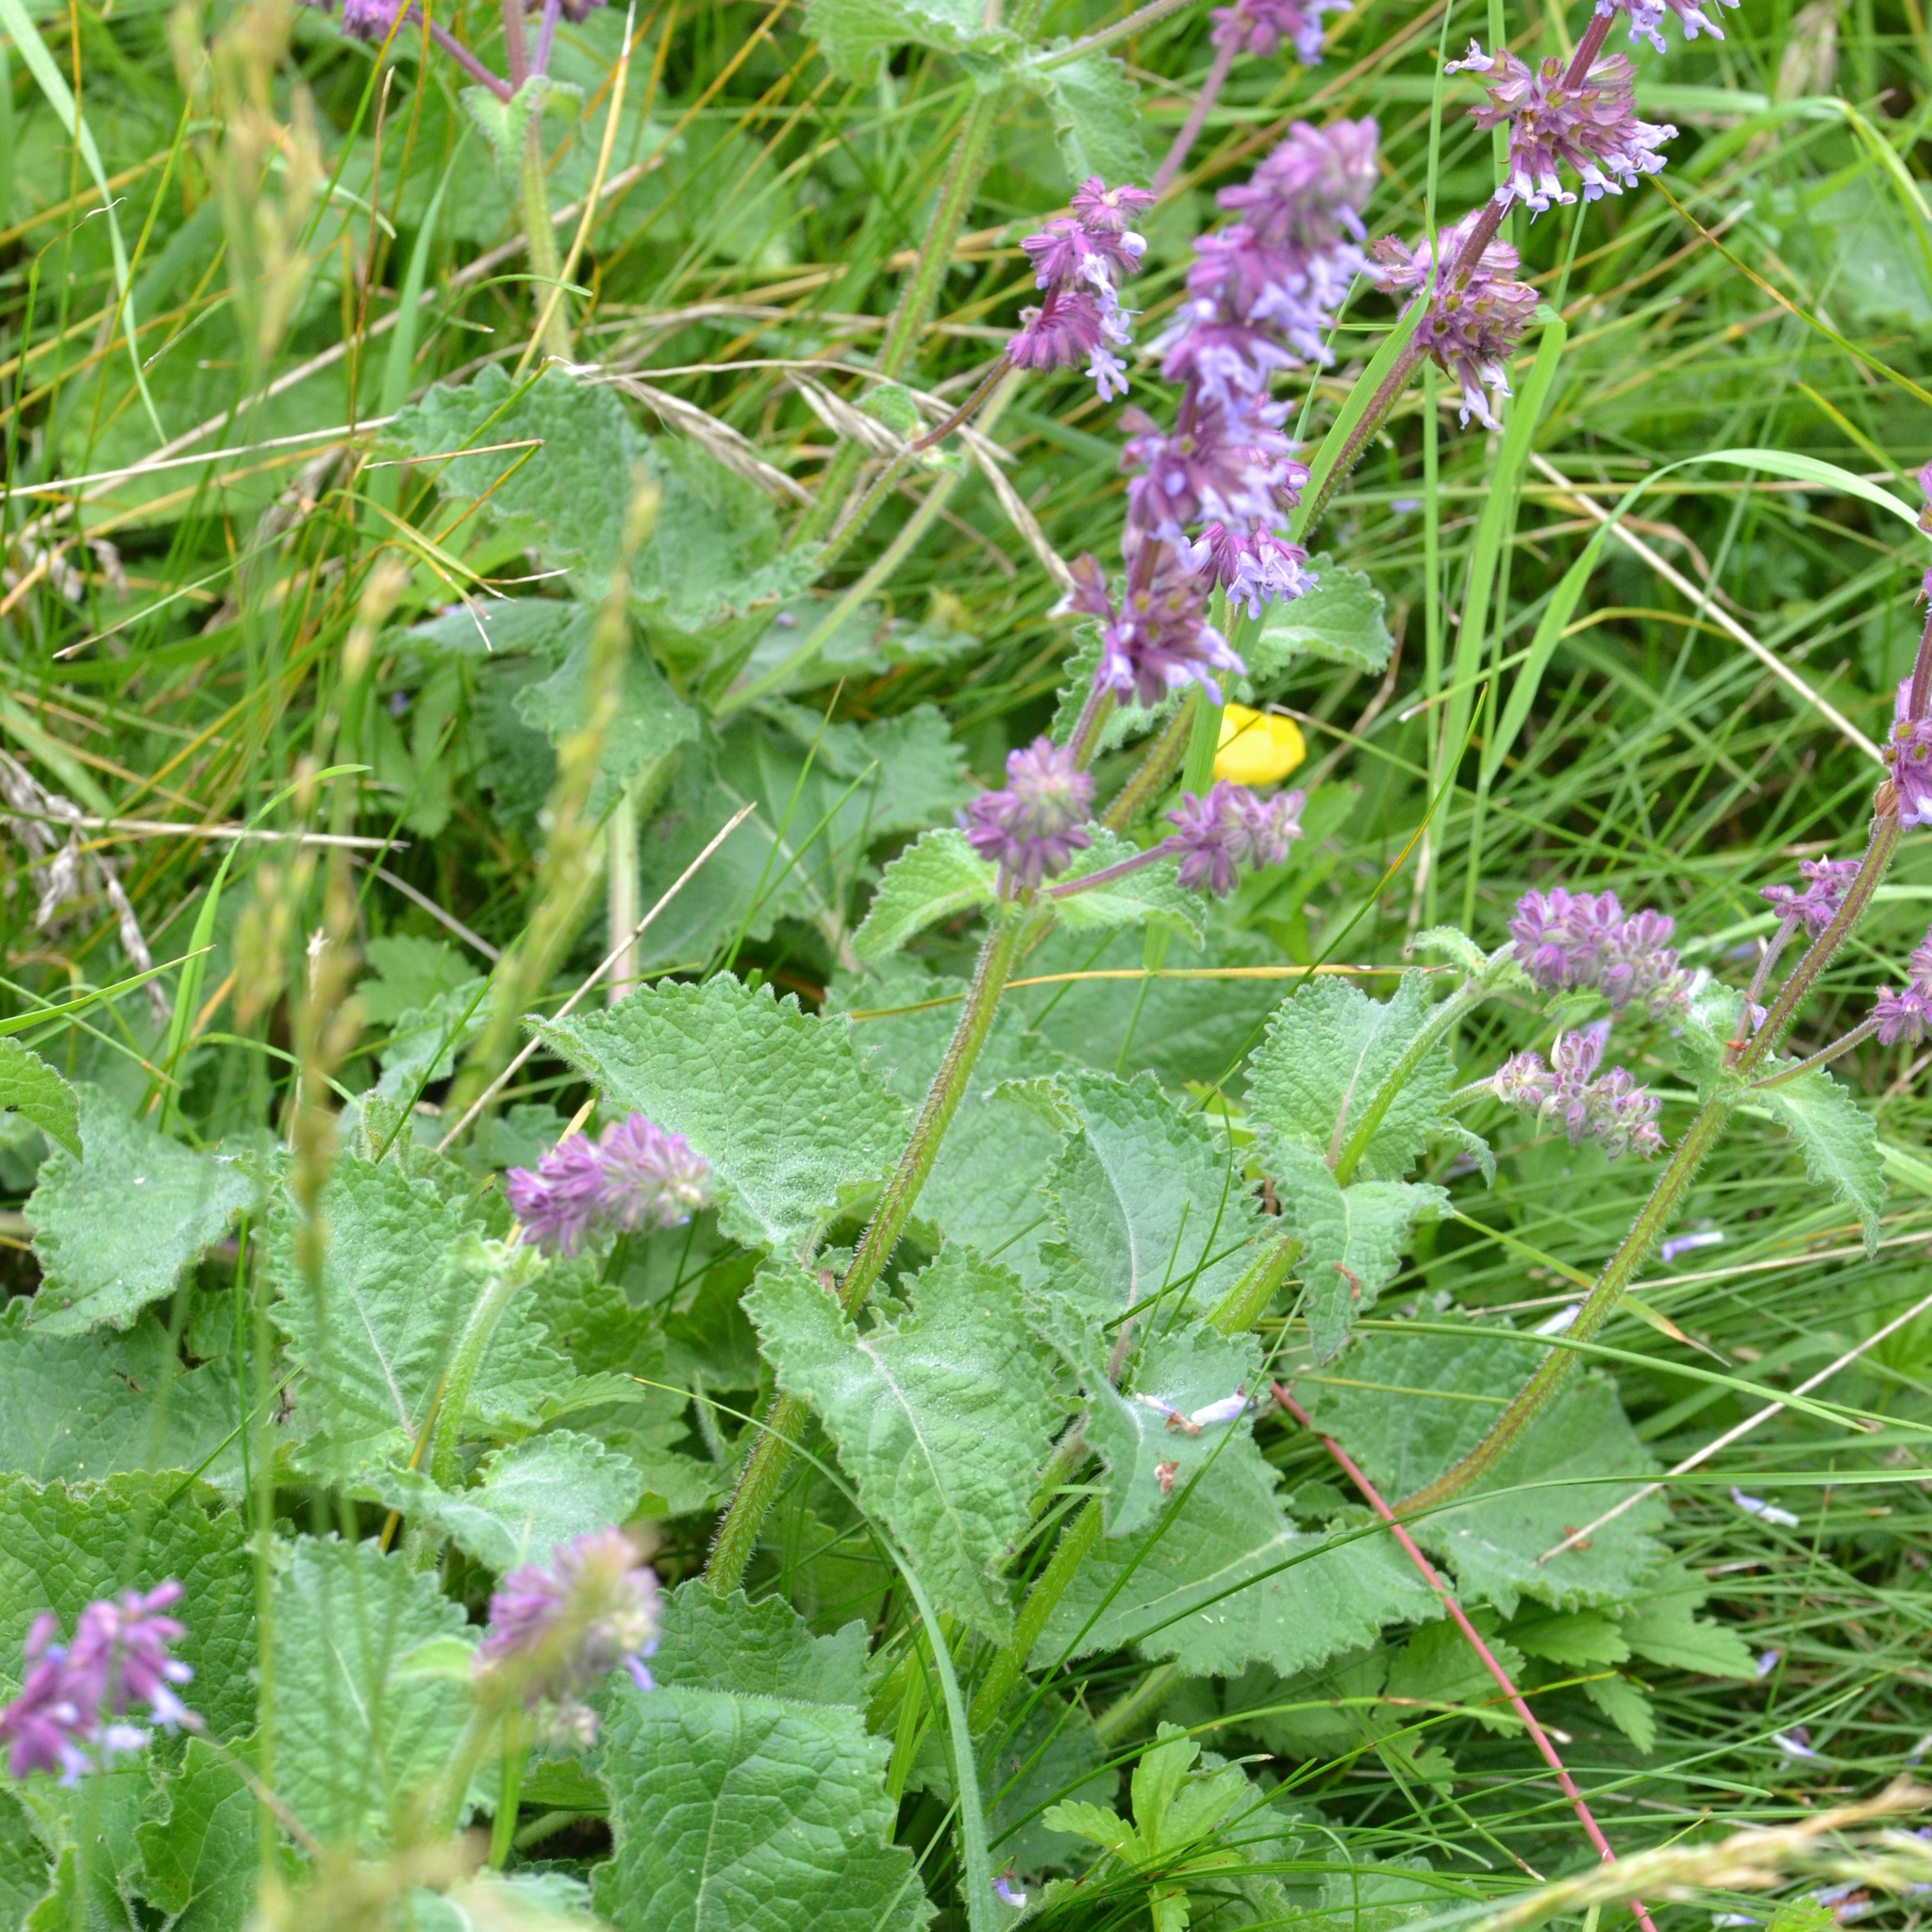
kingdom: Plantae
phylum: Tracheophyta
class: Magnoliopsida
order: Lamiales
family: Lamiaceae
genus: Salvia
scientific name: Salvia verticillata
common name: Whorled clary
